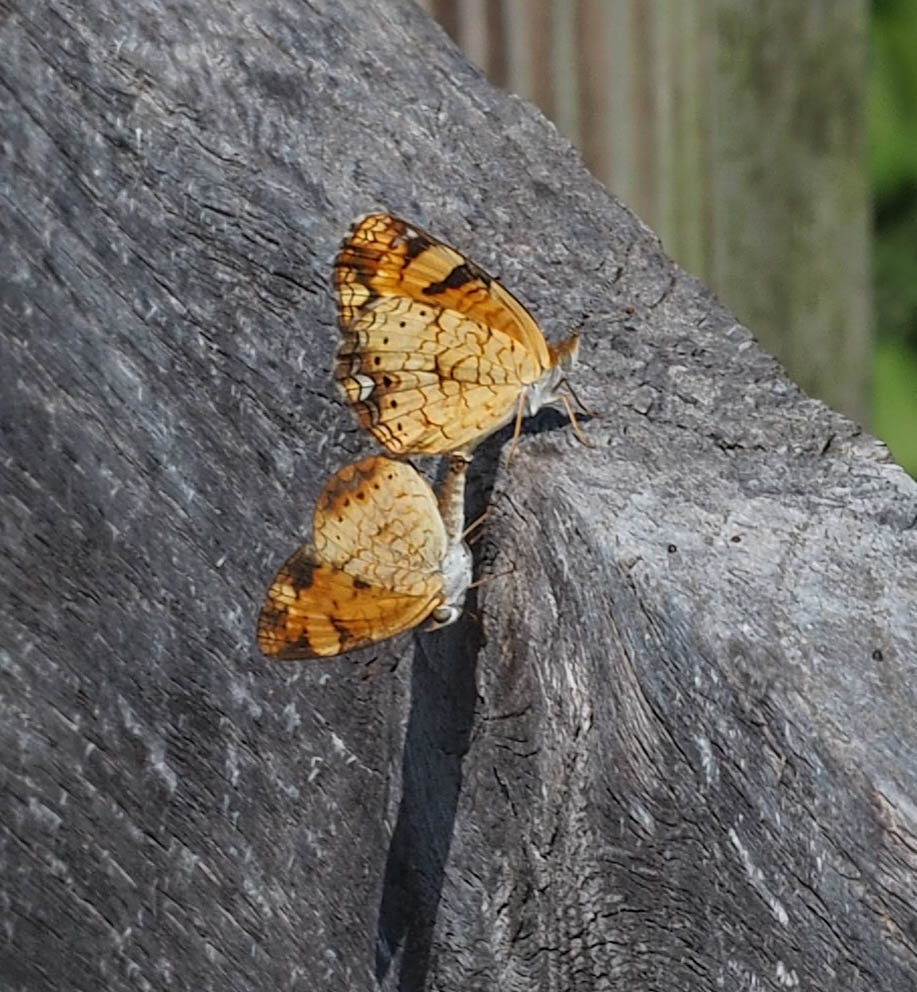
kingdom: Animalia
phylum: Arthropoda
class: Insecta
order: Lepidoptera
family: Nymphalidae
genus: Phyciodes
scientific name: Phyciodes tharos
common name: Pearl crescent
